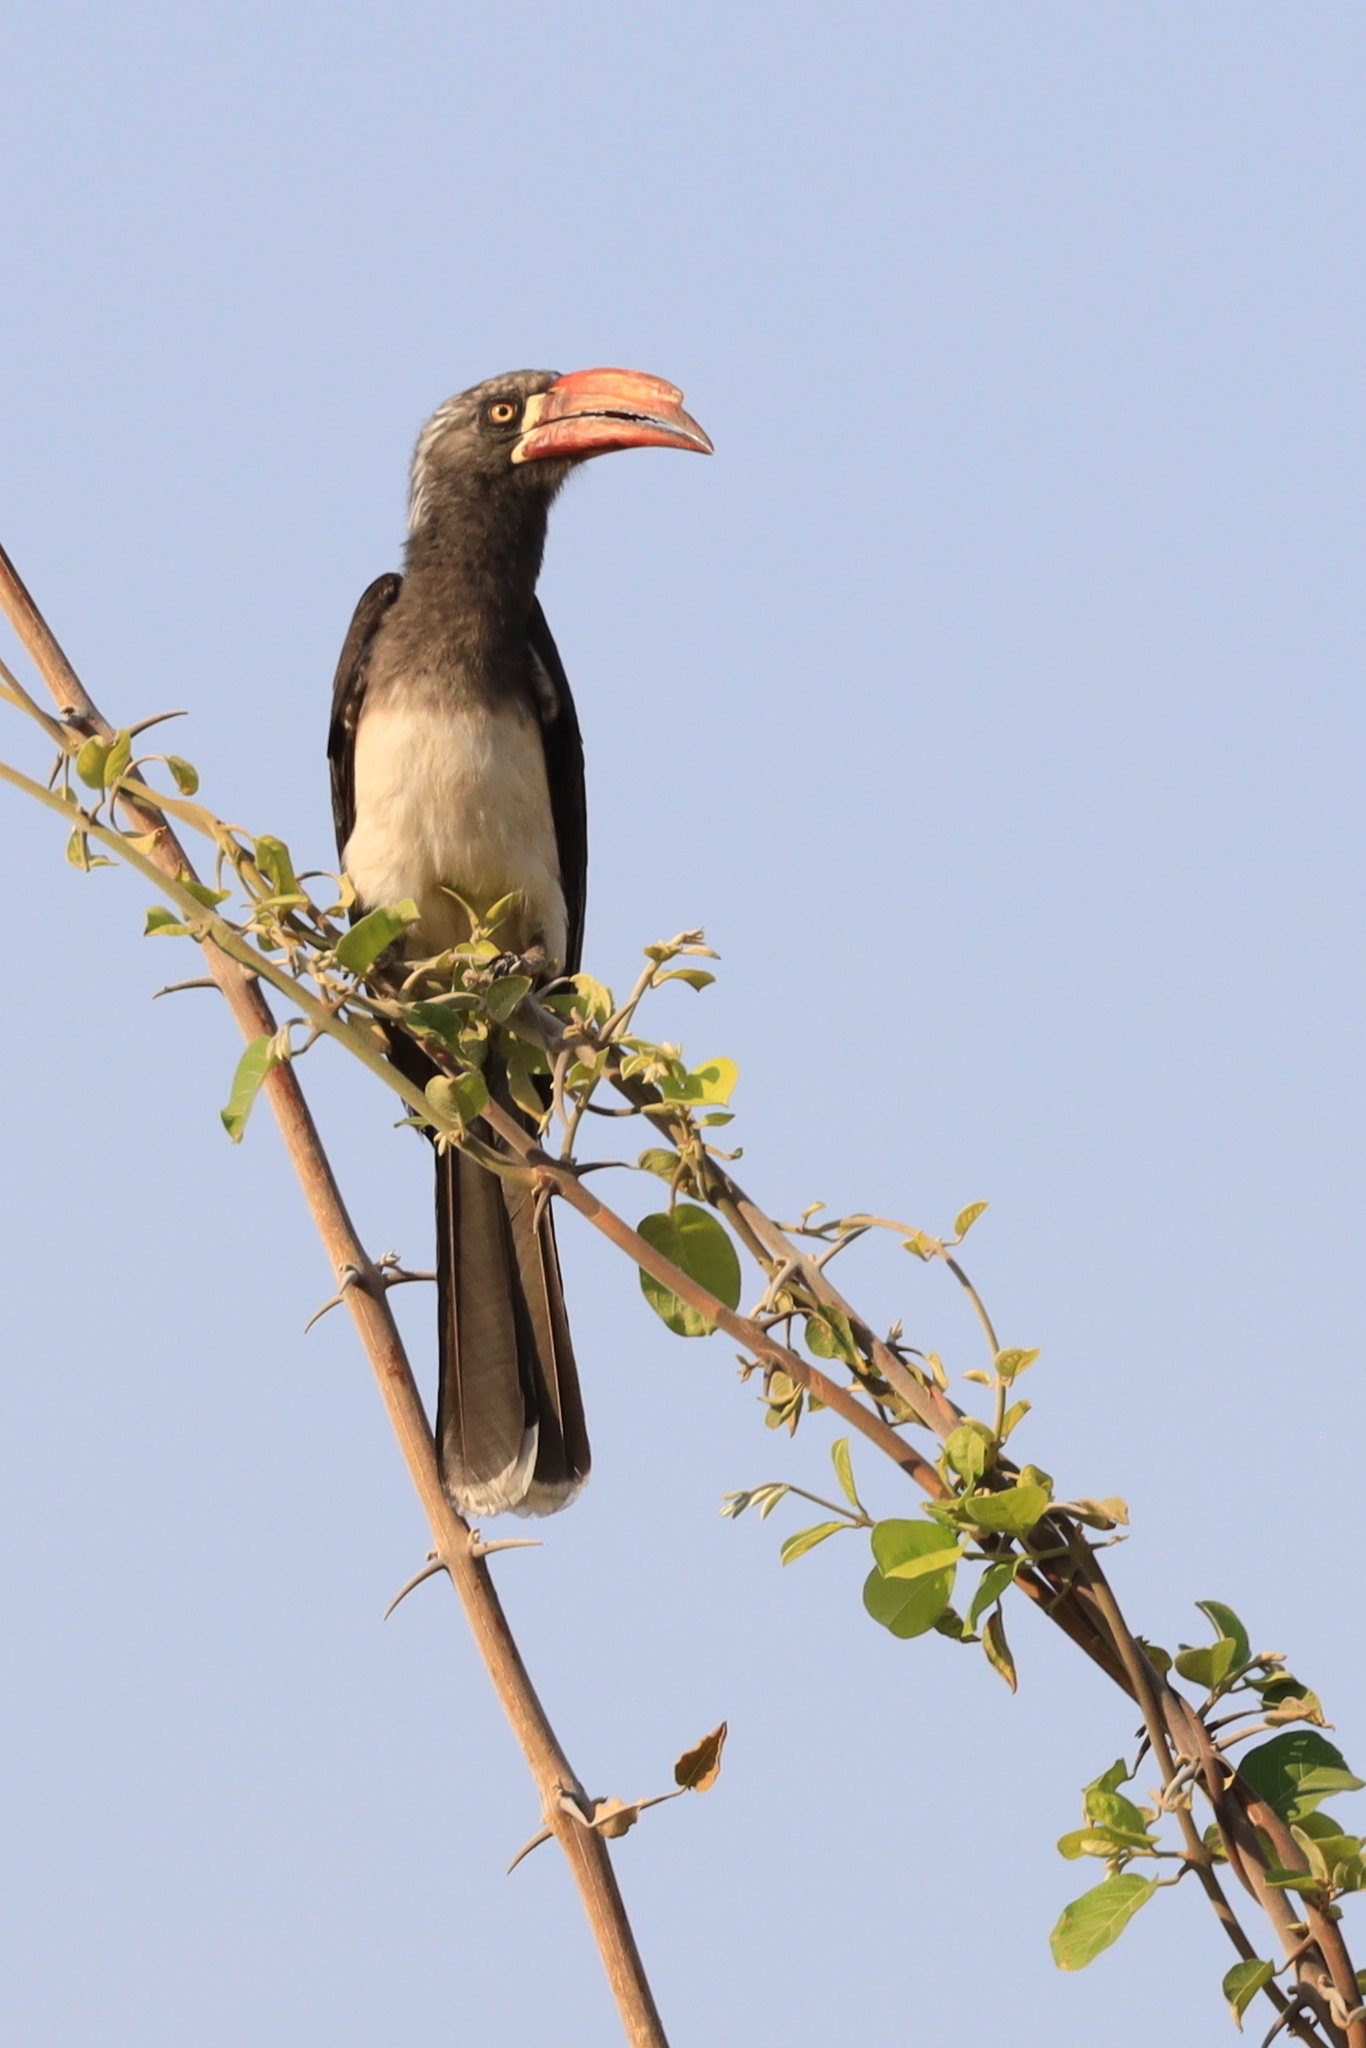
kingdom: Animalia
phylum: Chordata
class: Aves
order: Bucerotiformes
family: Bucerotidae
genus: Lophoceros
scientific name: Lophoceros alboterminatus
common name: Crowned hornbill
